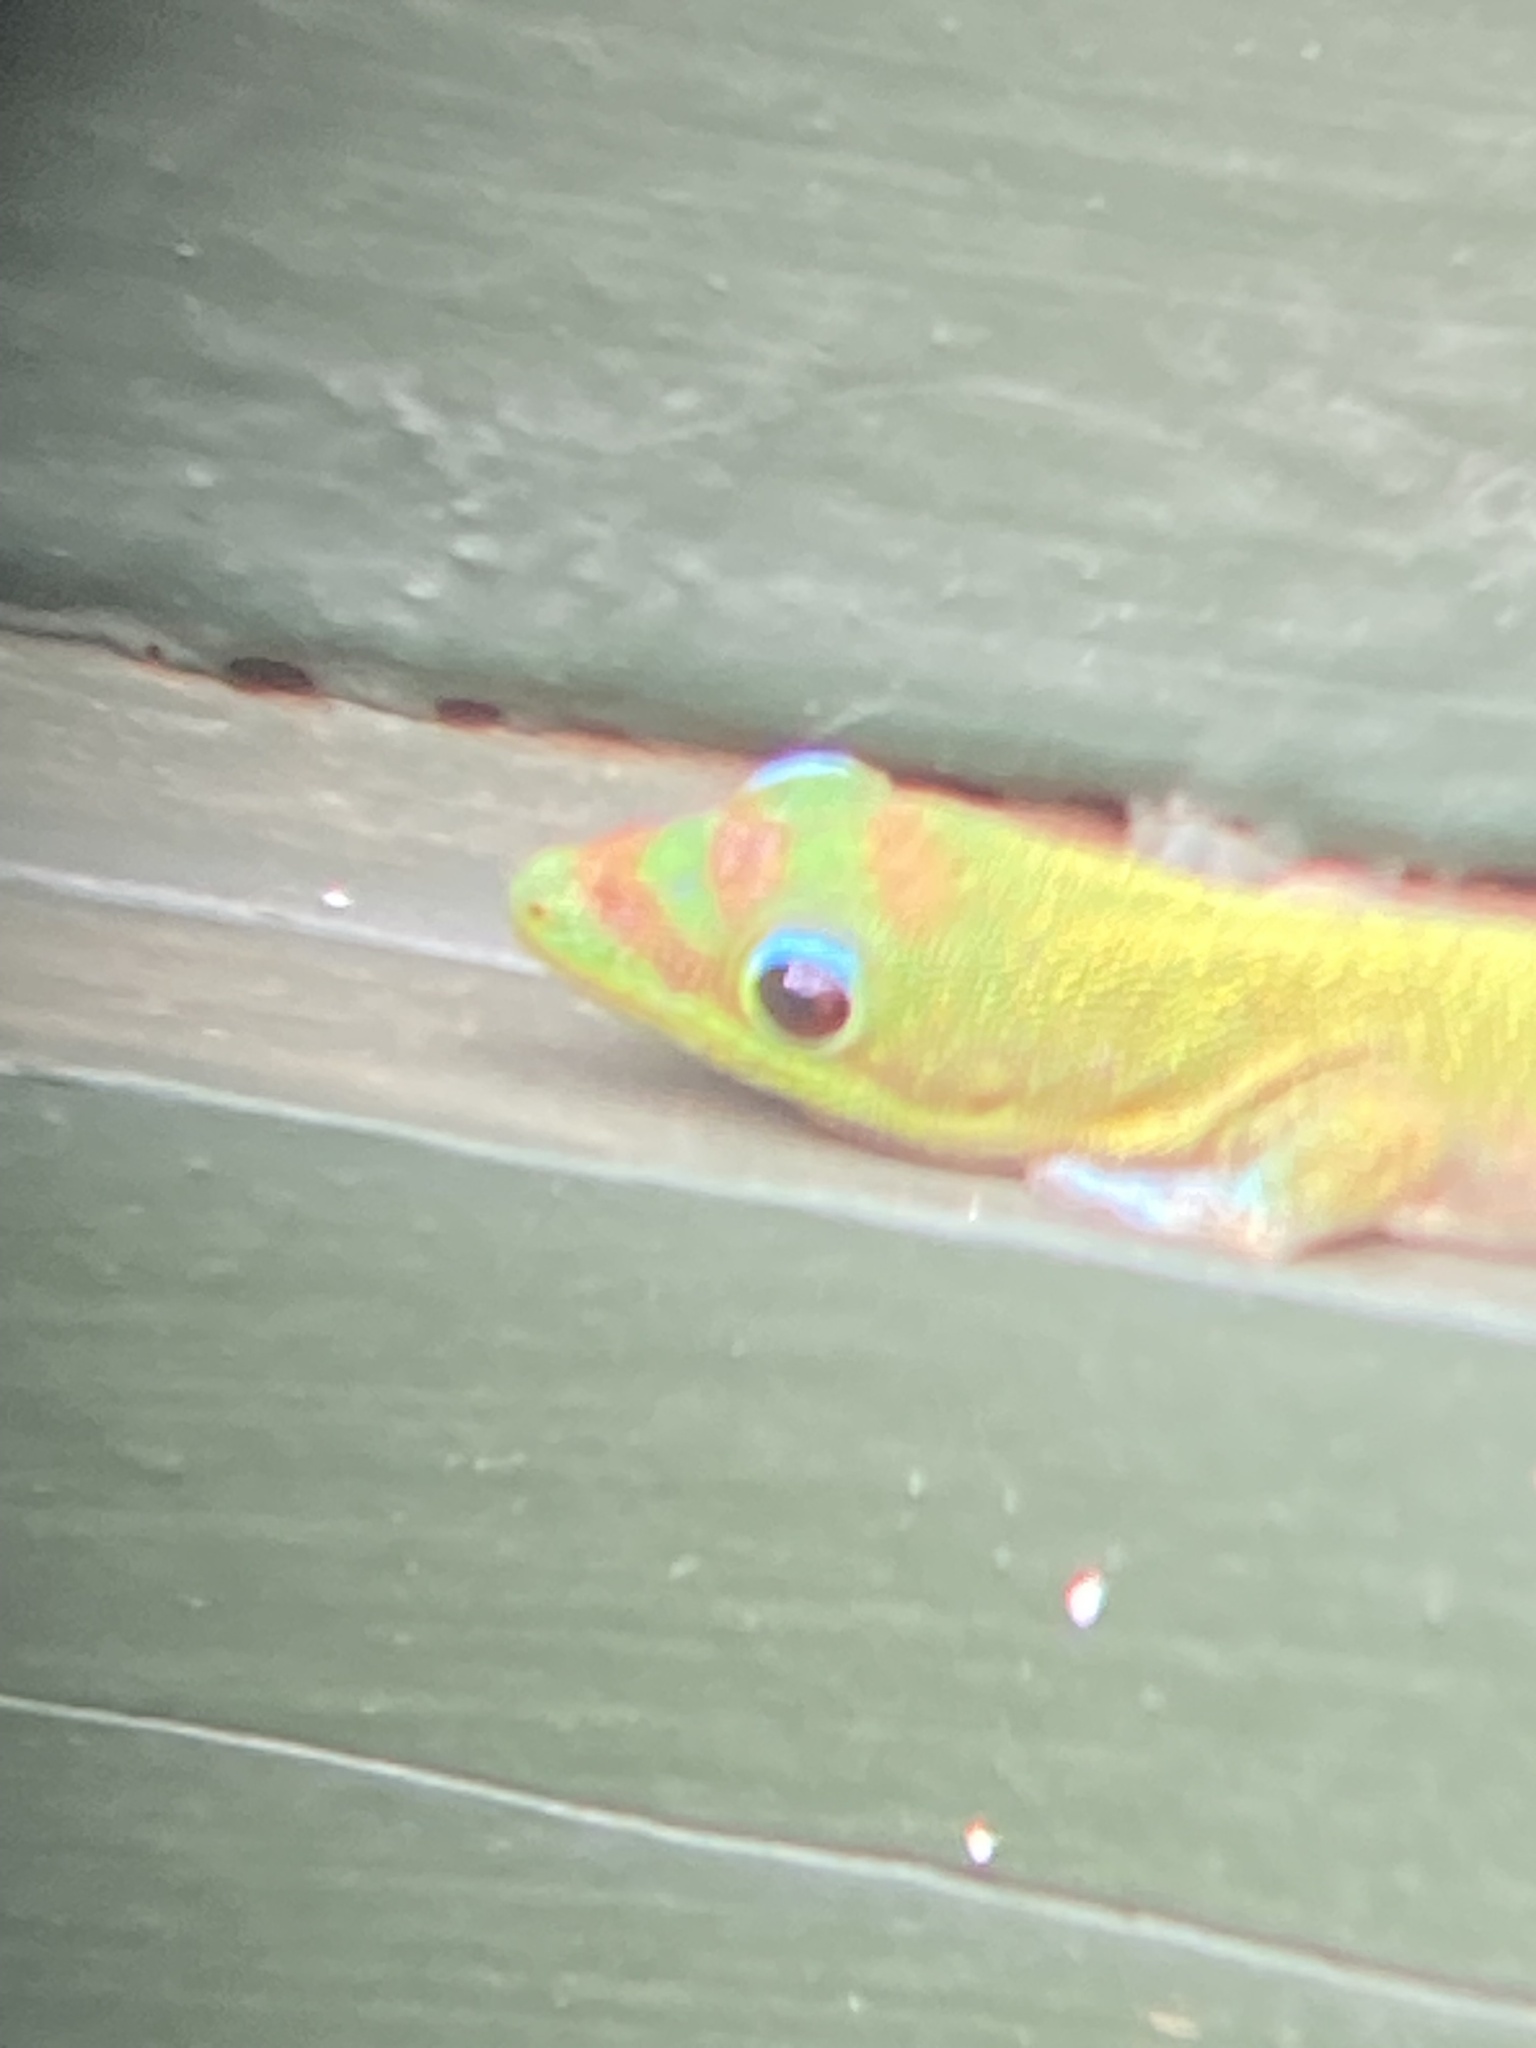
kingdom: Animalia
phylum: Chordata
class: Squamata
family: Gekkonidae
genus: Phelsuma
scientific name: Phelsuma laticauda
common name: Gold dust day gecko
